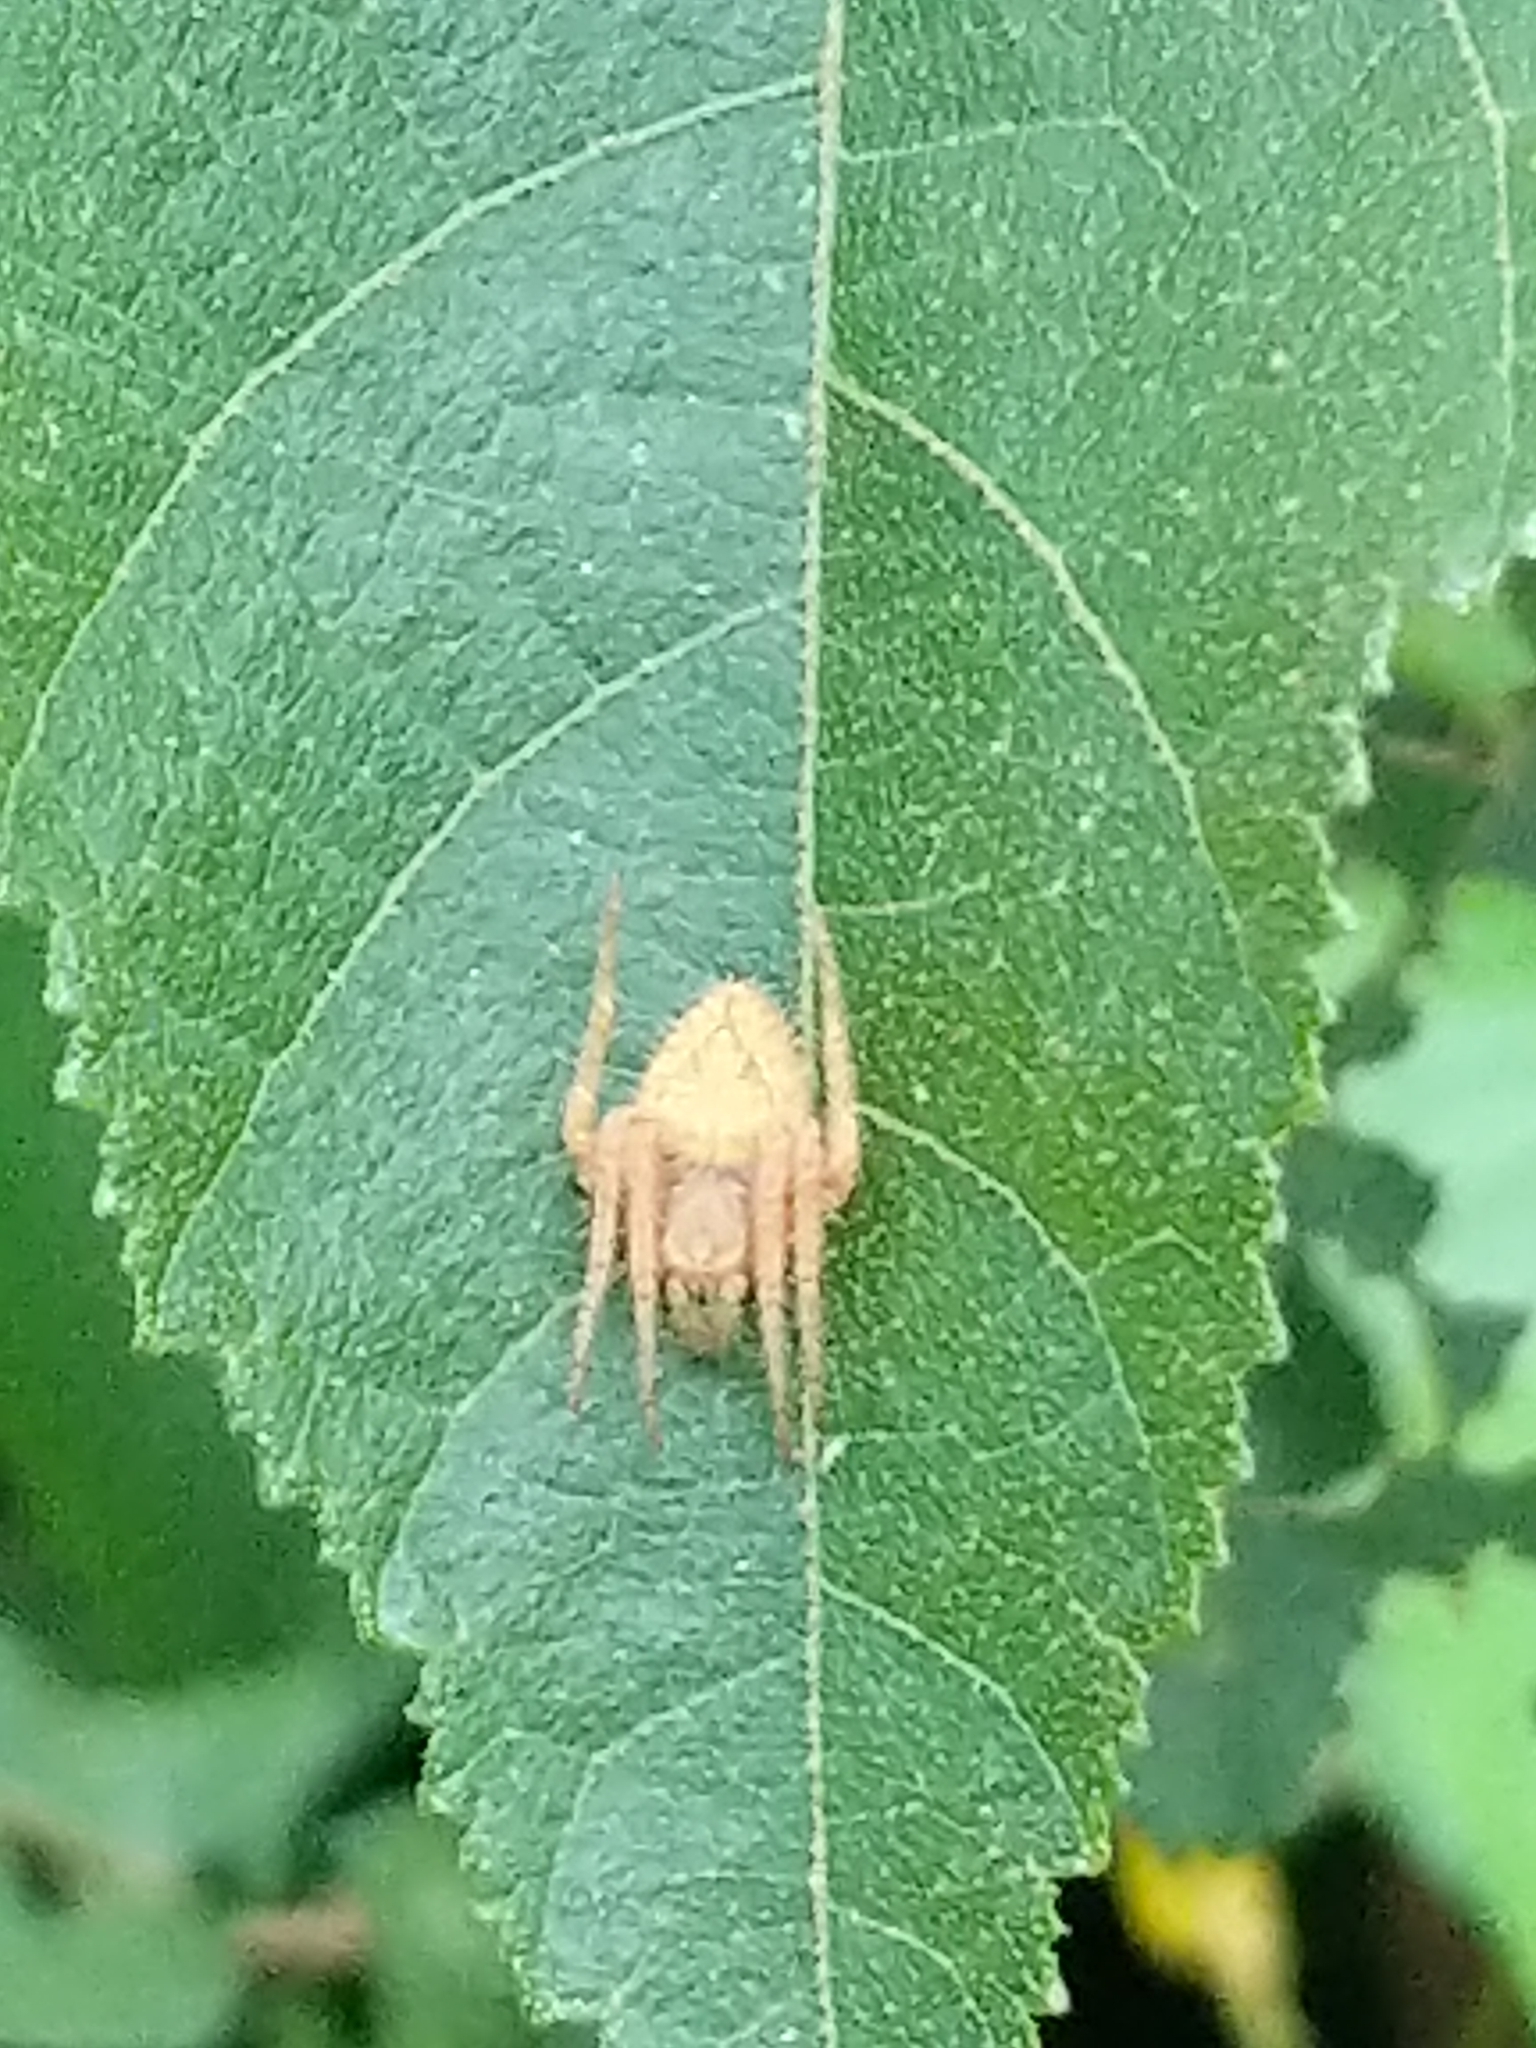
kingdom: Animalia
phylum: Arthropoda
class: Arachnida
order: Araneae
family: Araneidae
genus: Eriophora
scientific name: Eriophora edax
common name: Orb weavers
